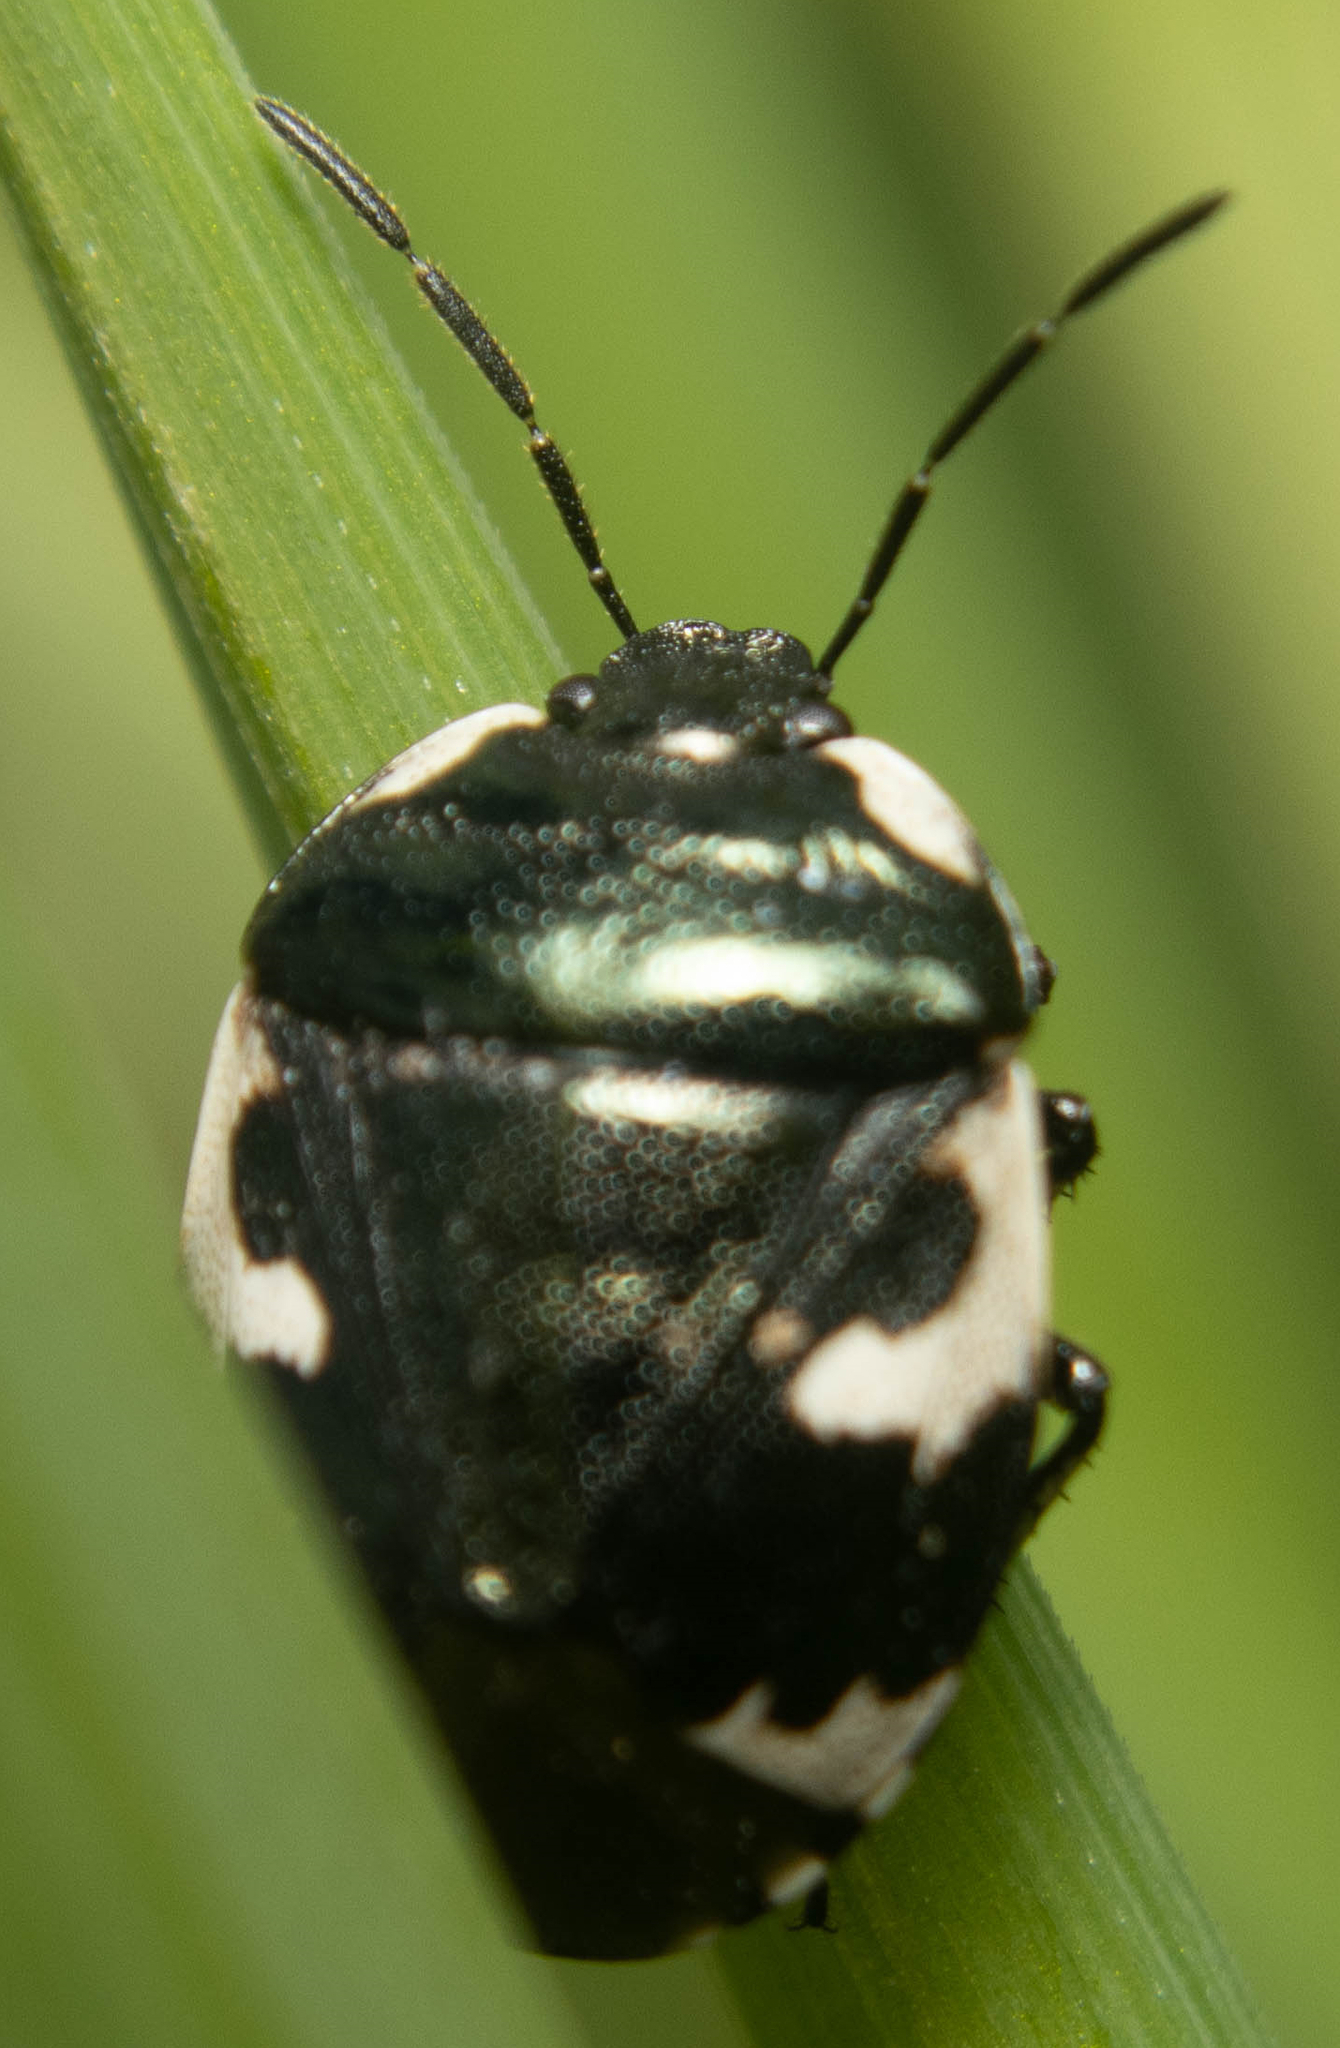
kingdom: Animalia
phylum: Arthropoda
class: Insecta
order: Hemiptera
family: Cydnidae
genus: Tritomegas
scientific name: Tritomegas bicolor
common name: Pied shieldbug
